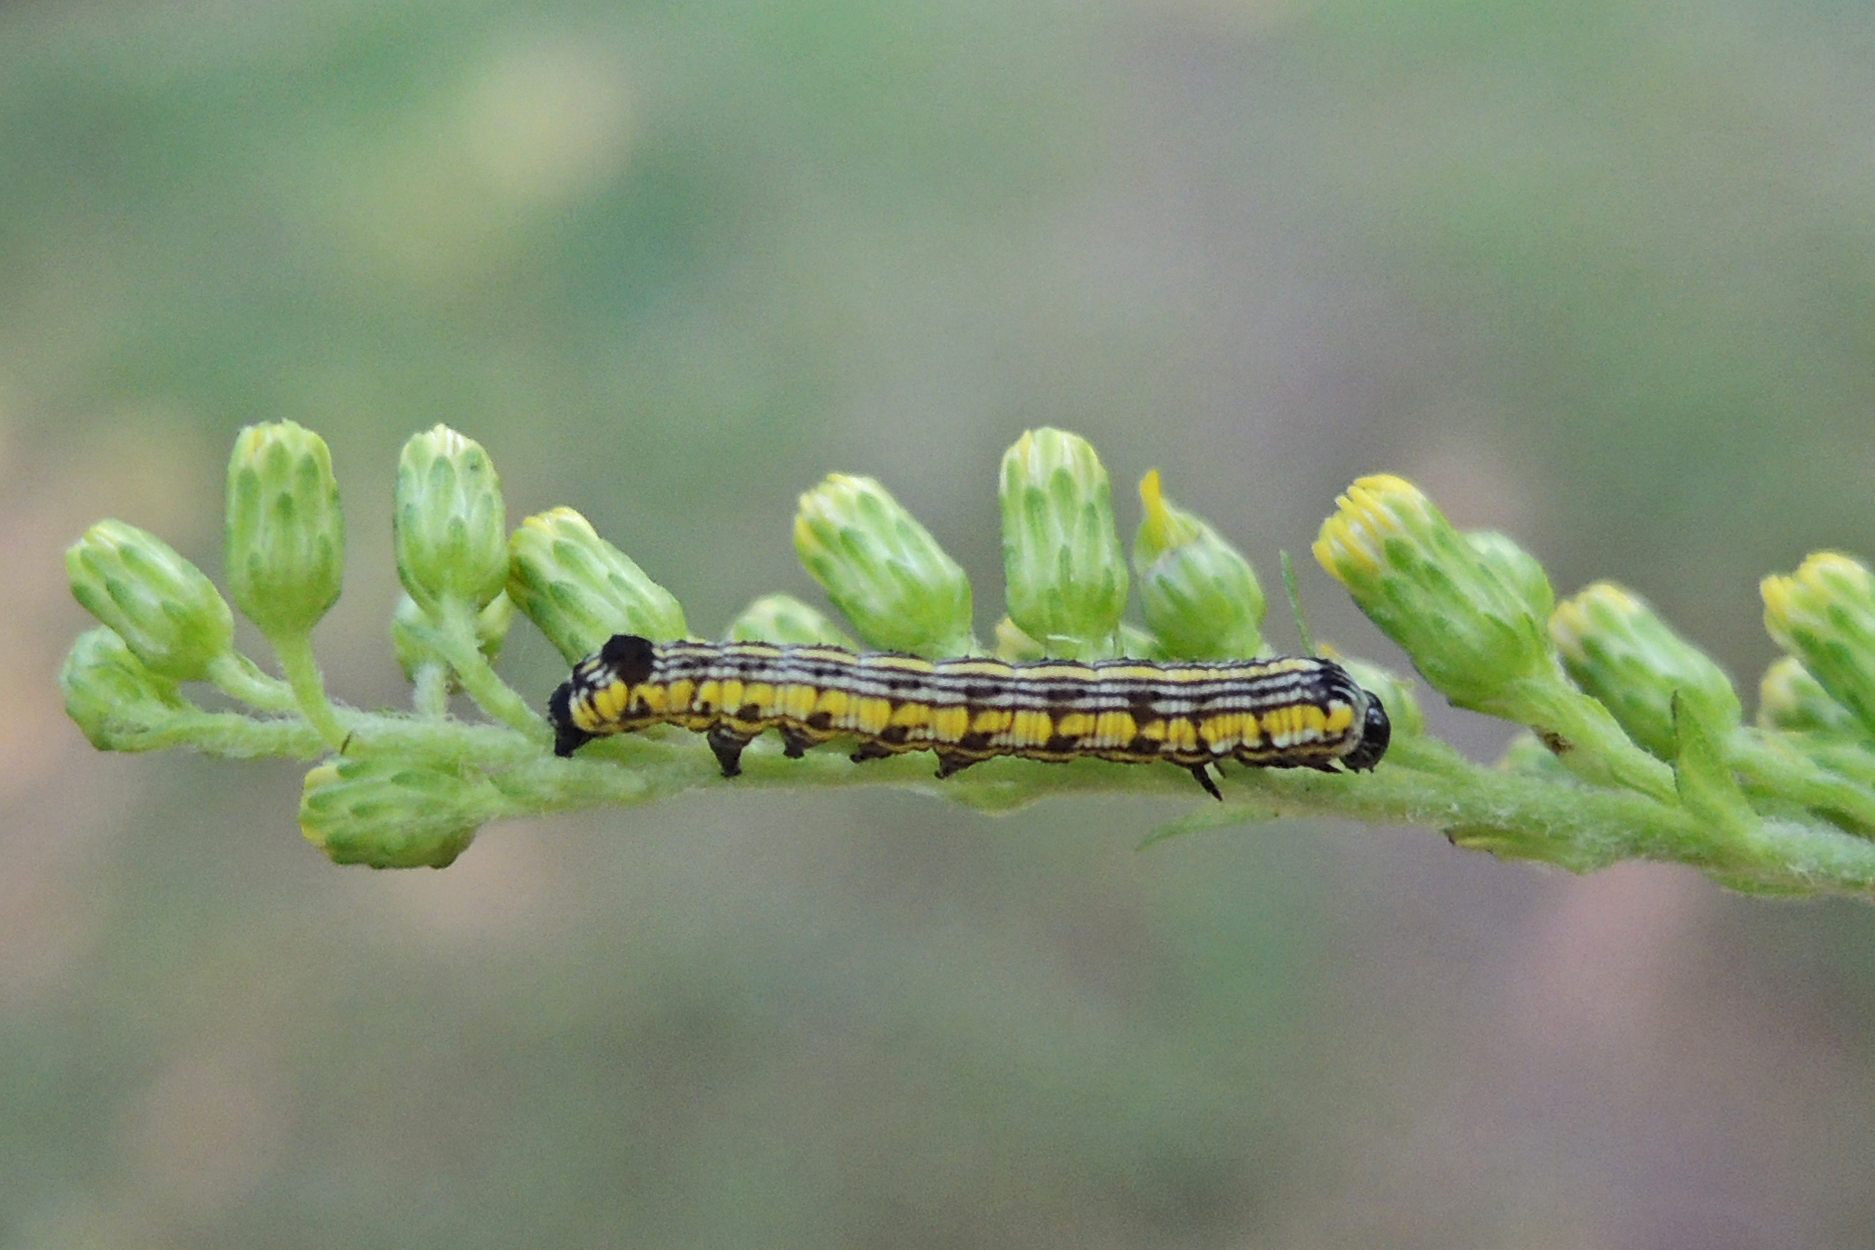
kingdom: Animalia
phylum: Arthropoda
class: Insecta
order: Lepidoptera
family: Noctuidae
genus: Cucullia
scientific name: Cucullia convexipennis
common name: Brown-hooded owlet
